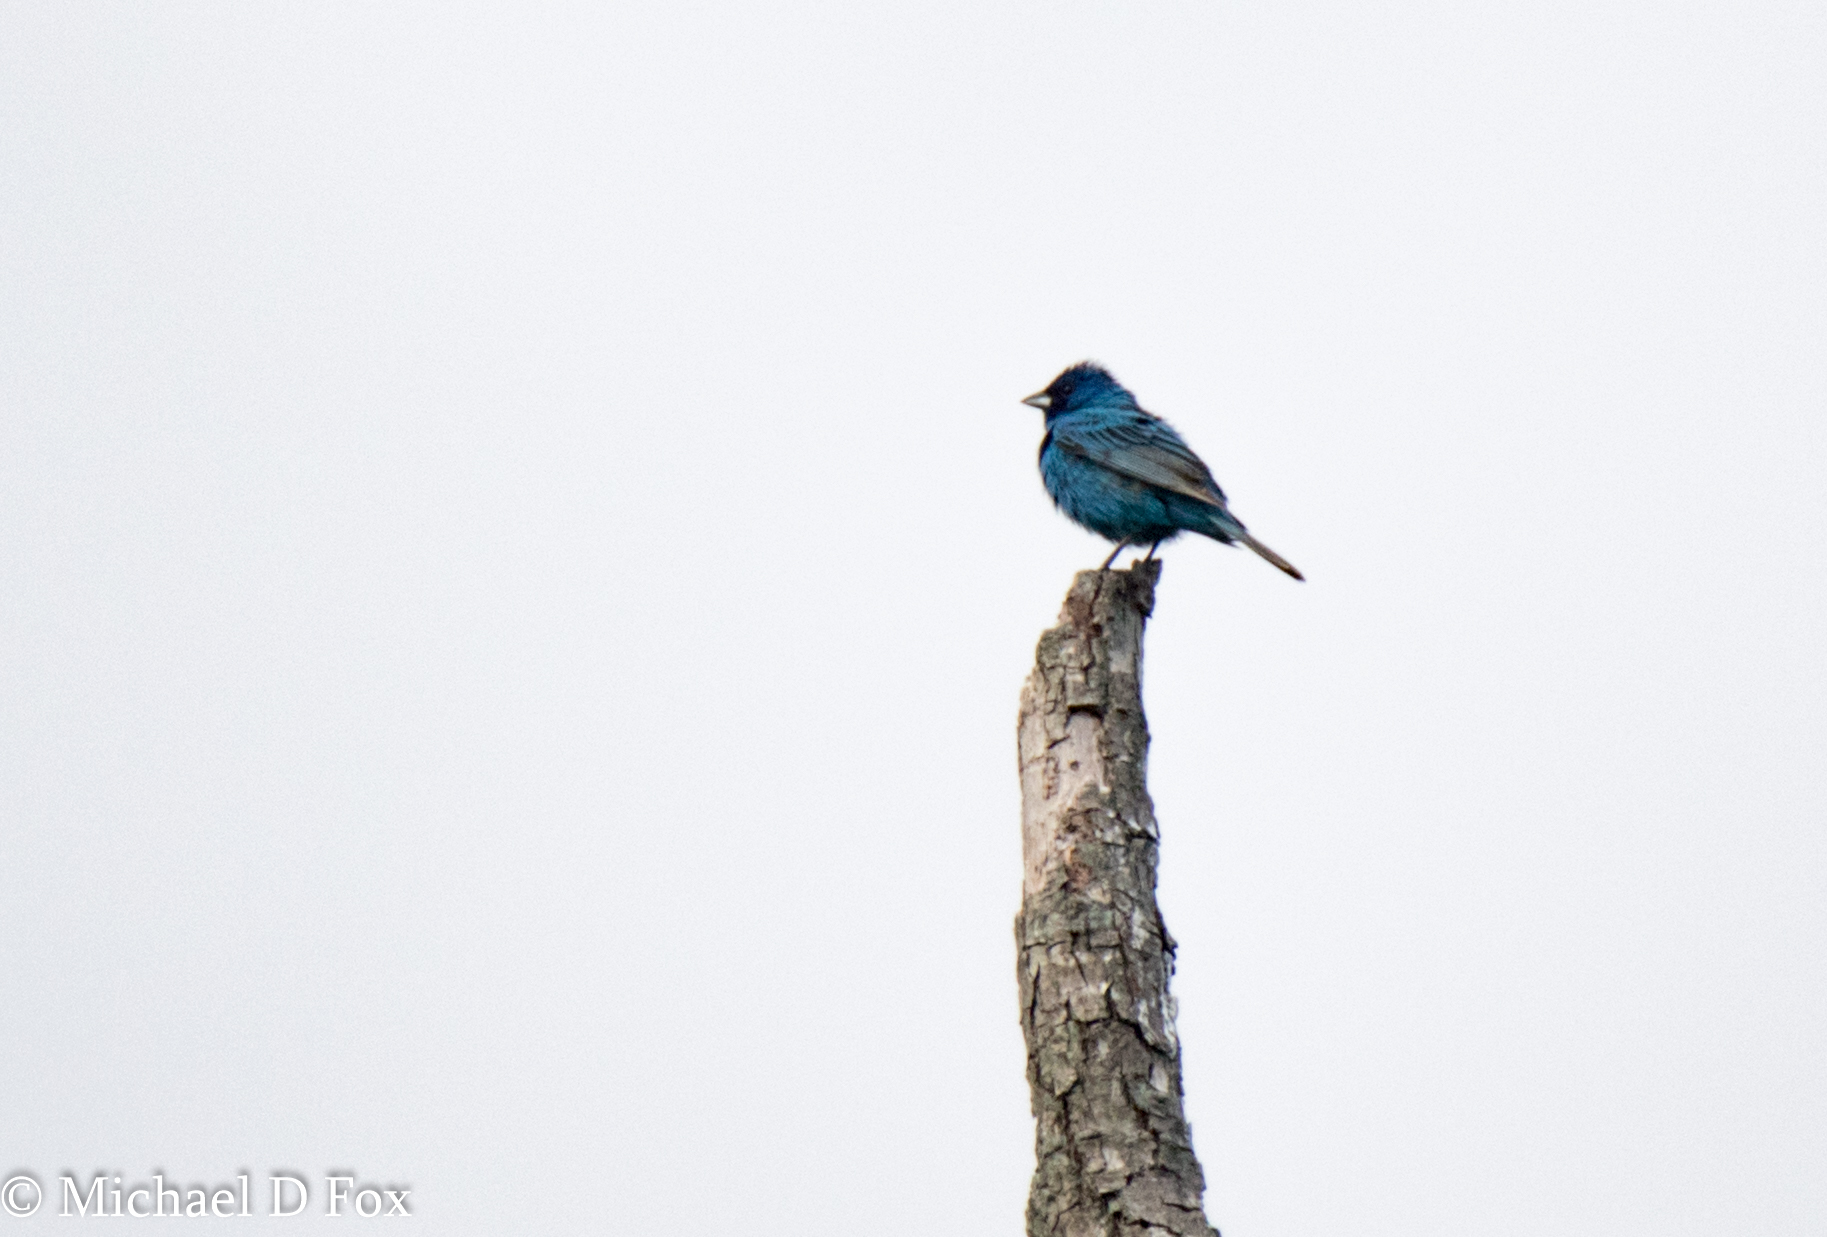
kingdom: Animalia
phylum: Chordata
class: Aves
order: Passeriformes
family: Cardinalidae
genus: Passerina
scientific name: Passerina cyanea
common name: Indigo bunting
